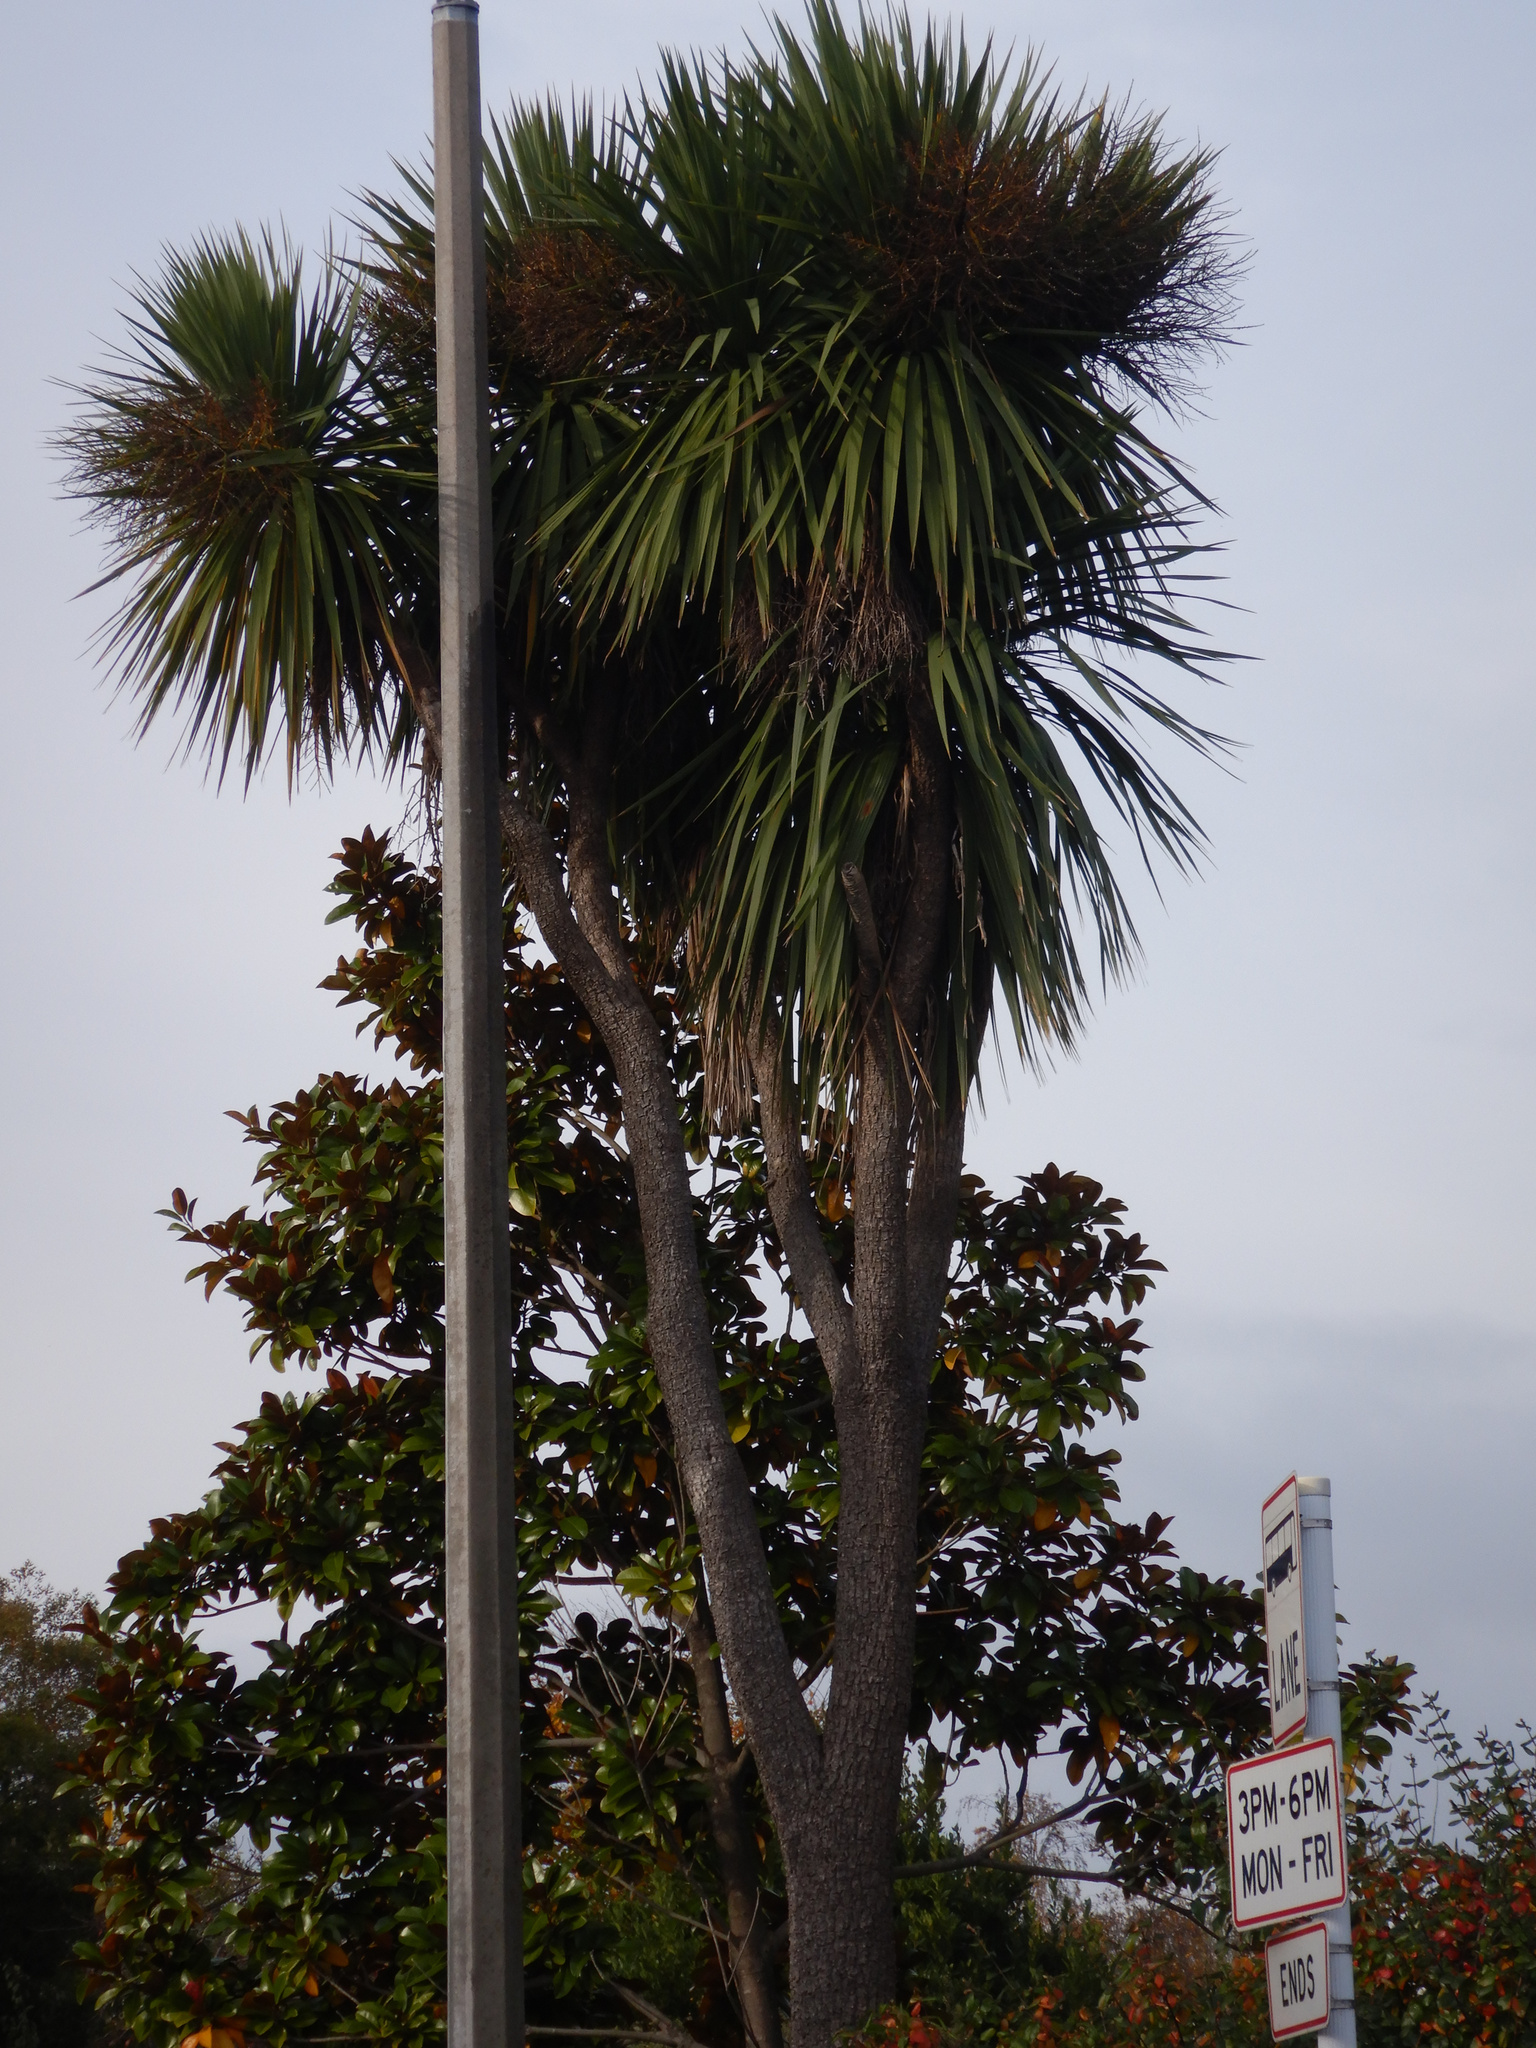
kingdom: Plantae
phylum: Tracheophyta
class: Liliopsida
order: Asparagales
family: Asparagaceae
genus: Cordyline
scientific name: Cordyline australis
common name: Cabbage-palm
